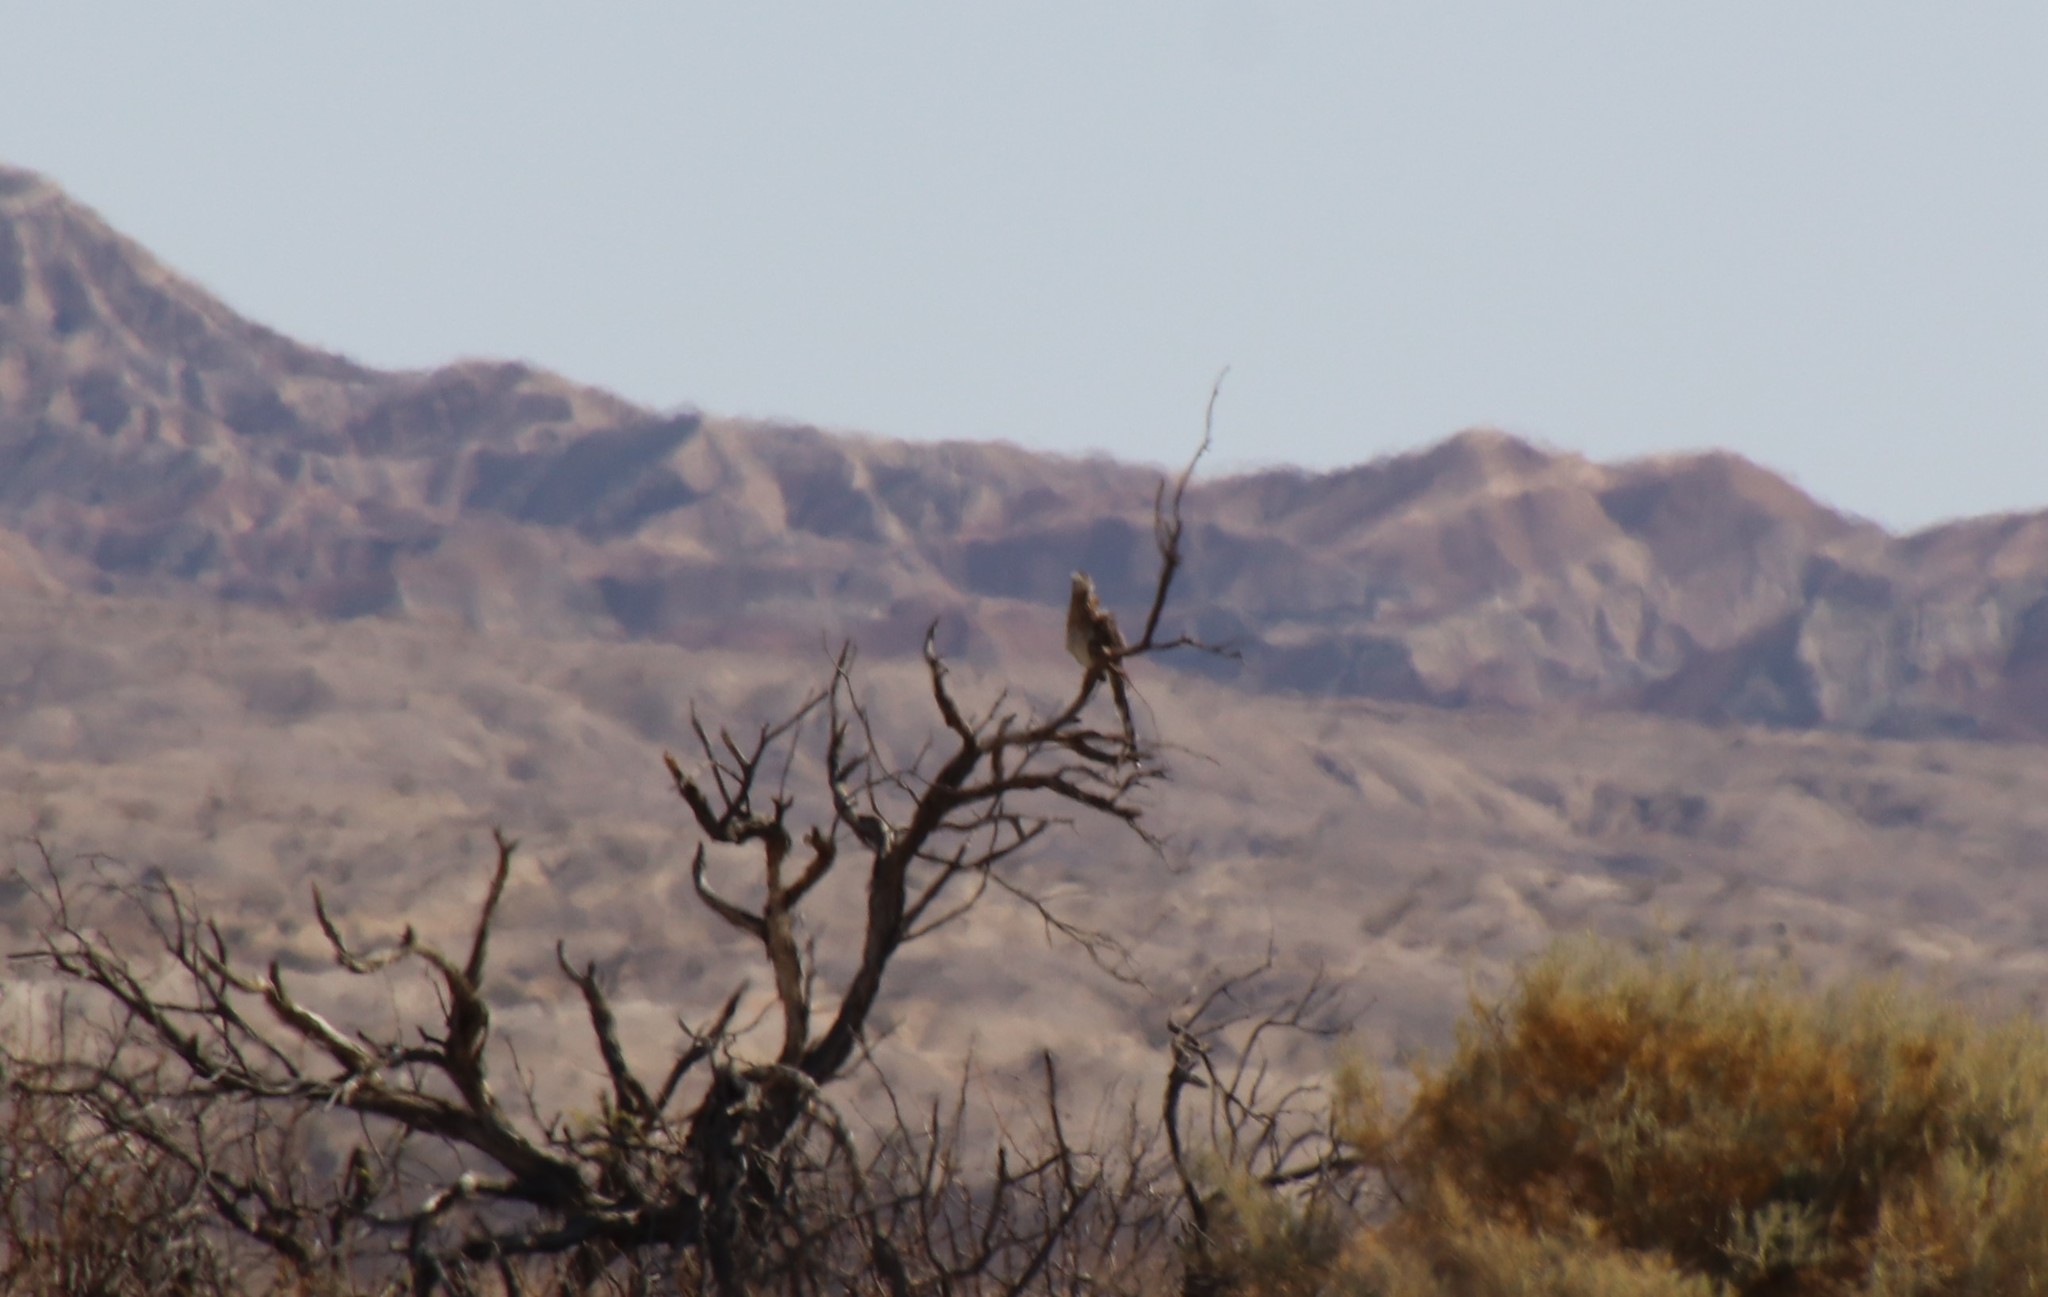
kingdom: Animalia
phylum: Chordata
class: Aves
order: Cuculiformes
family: Cuculidae
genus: Geococcyx
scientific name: Geococcyx californianus
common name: Greater roadrunner
